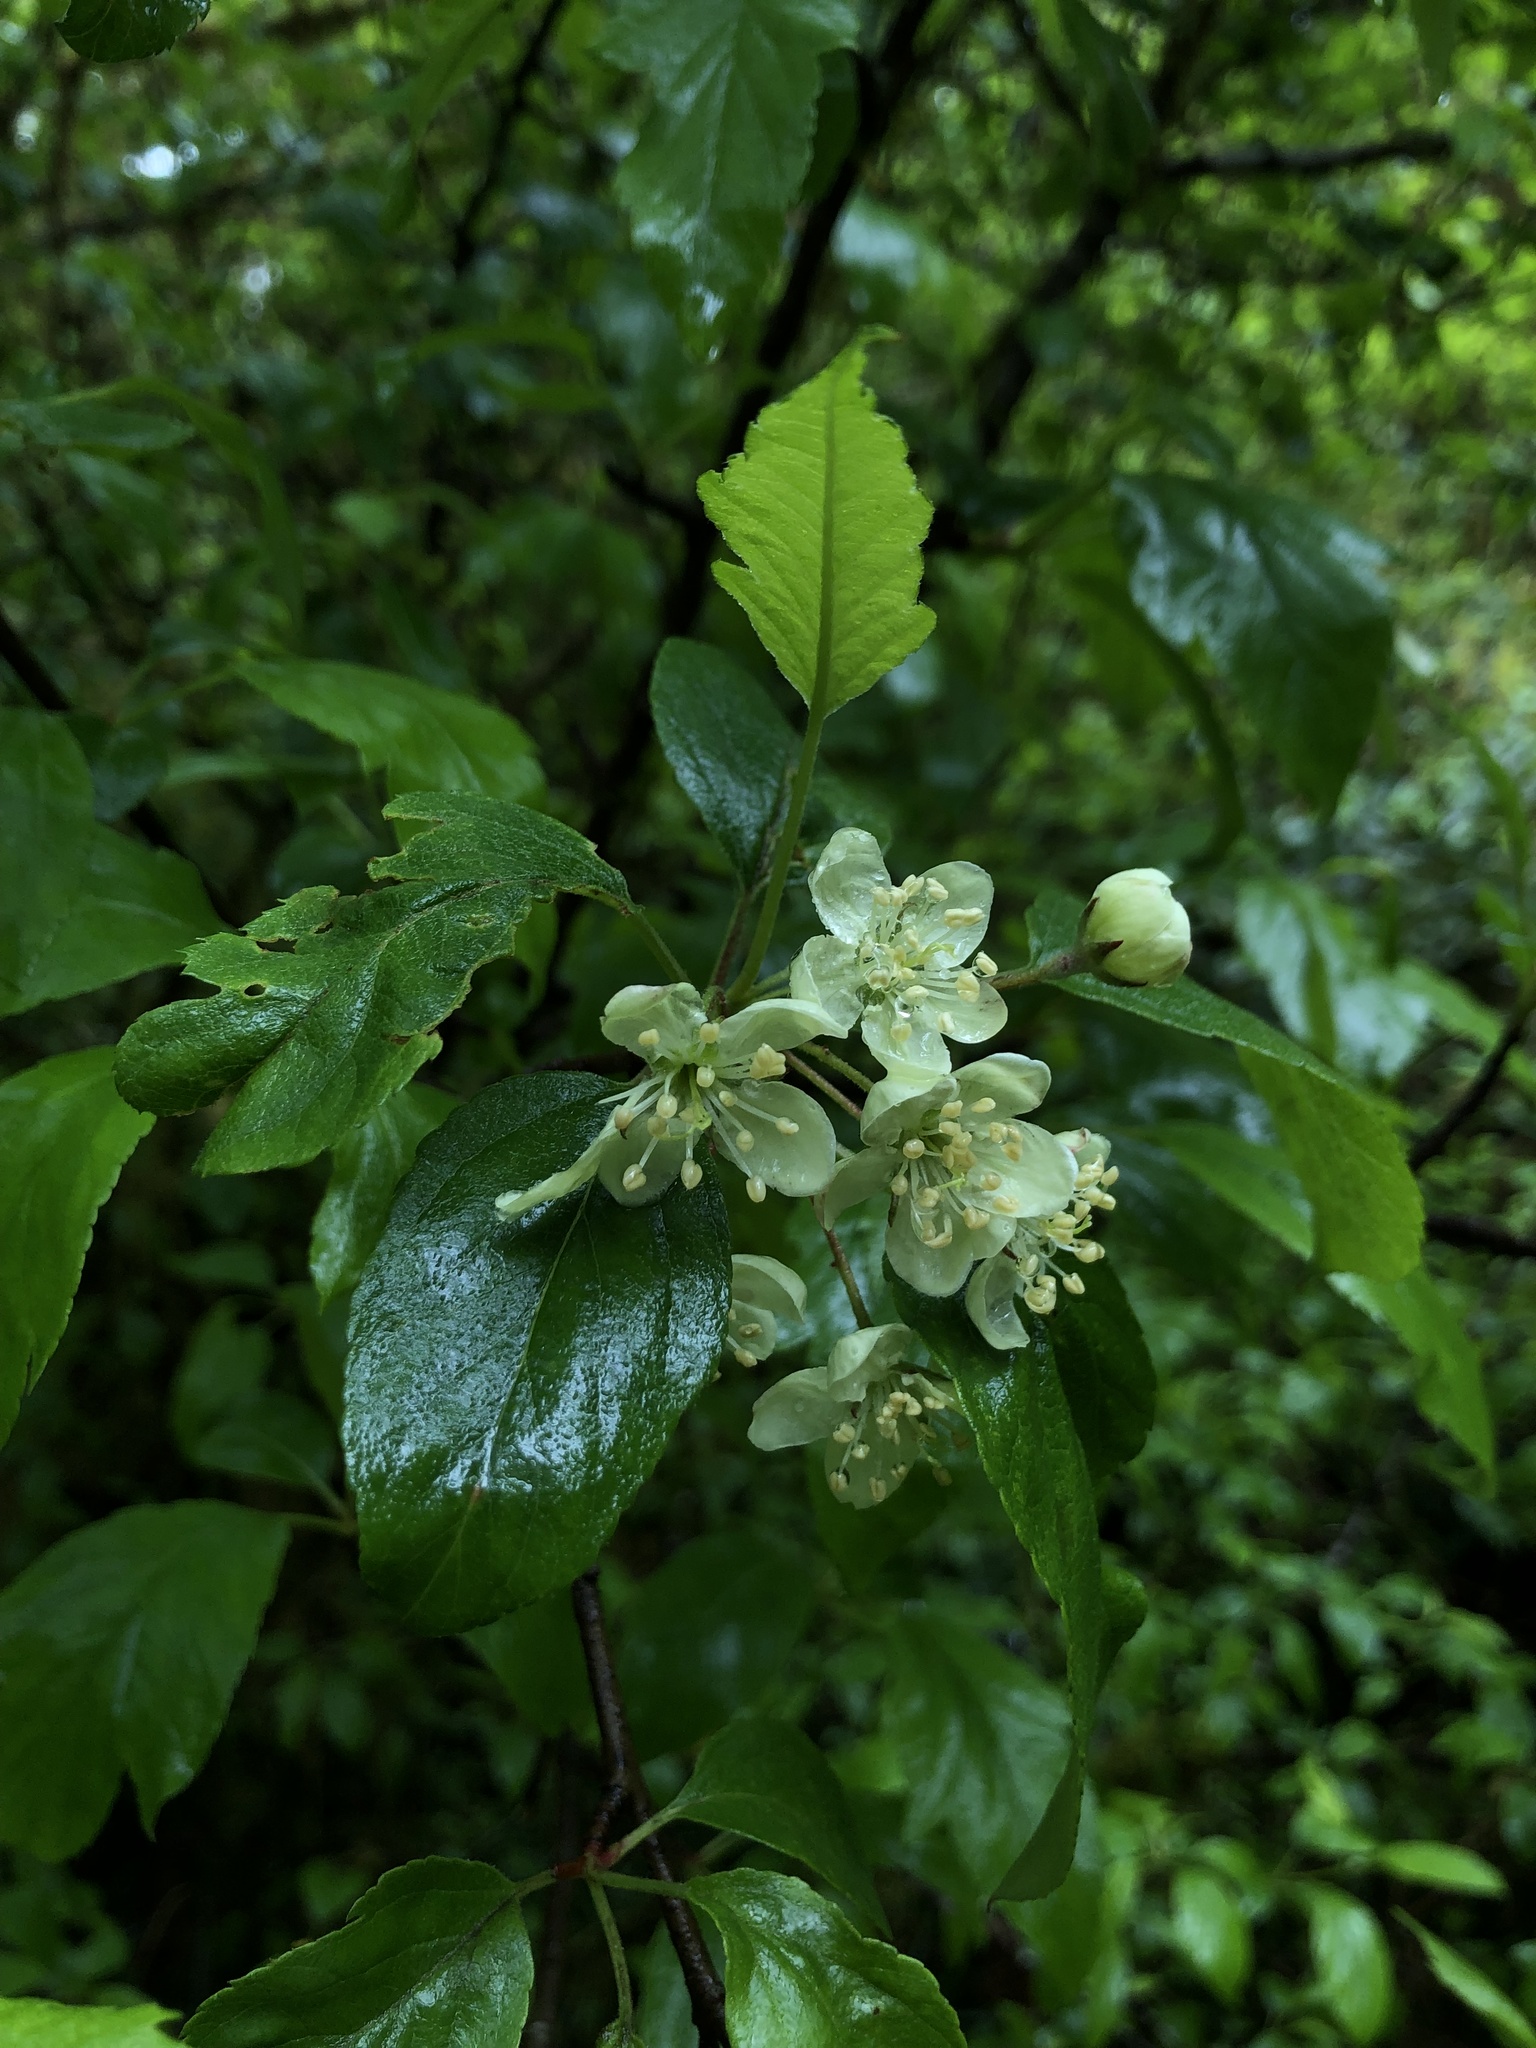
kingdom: Plantae
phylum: Tracheophyta
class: Magnoliopsida
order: Rosales
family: Rosaceae
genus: Malus
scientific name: Malus fusca
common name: Oregon crab apple
